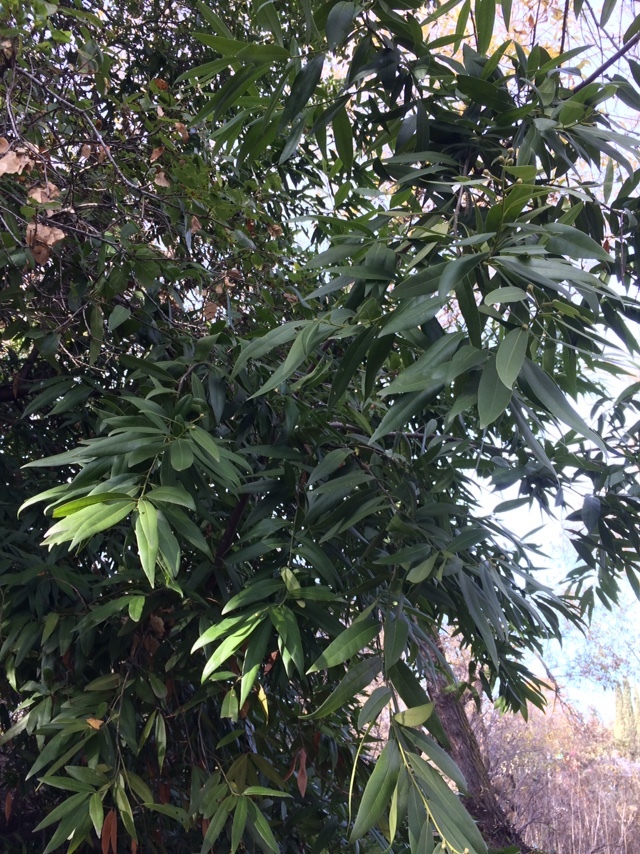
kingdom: Plantae
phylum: Tracheophyta
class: Magnoliopsida
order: Laurales
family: Lauraceae
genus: Umbellularia
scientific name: Umbellularia californica
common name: California bay
